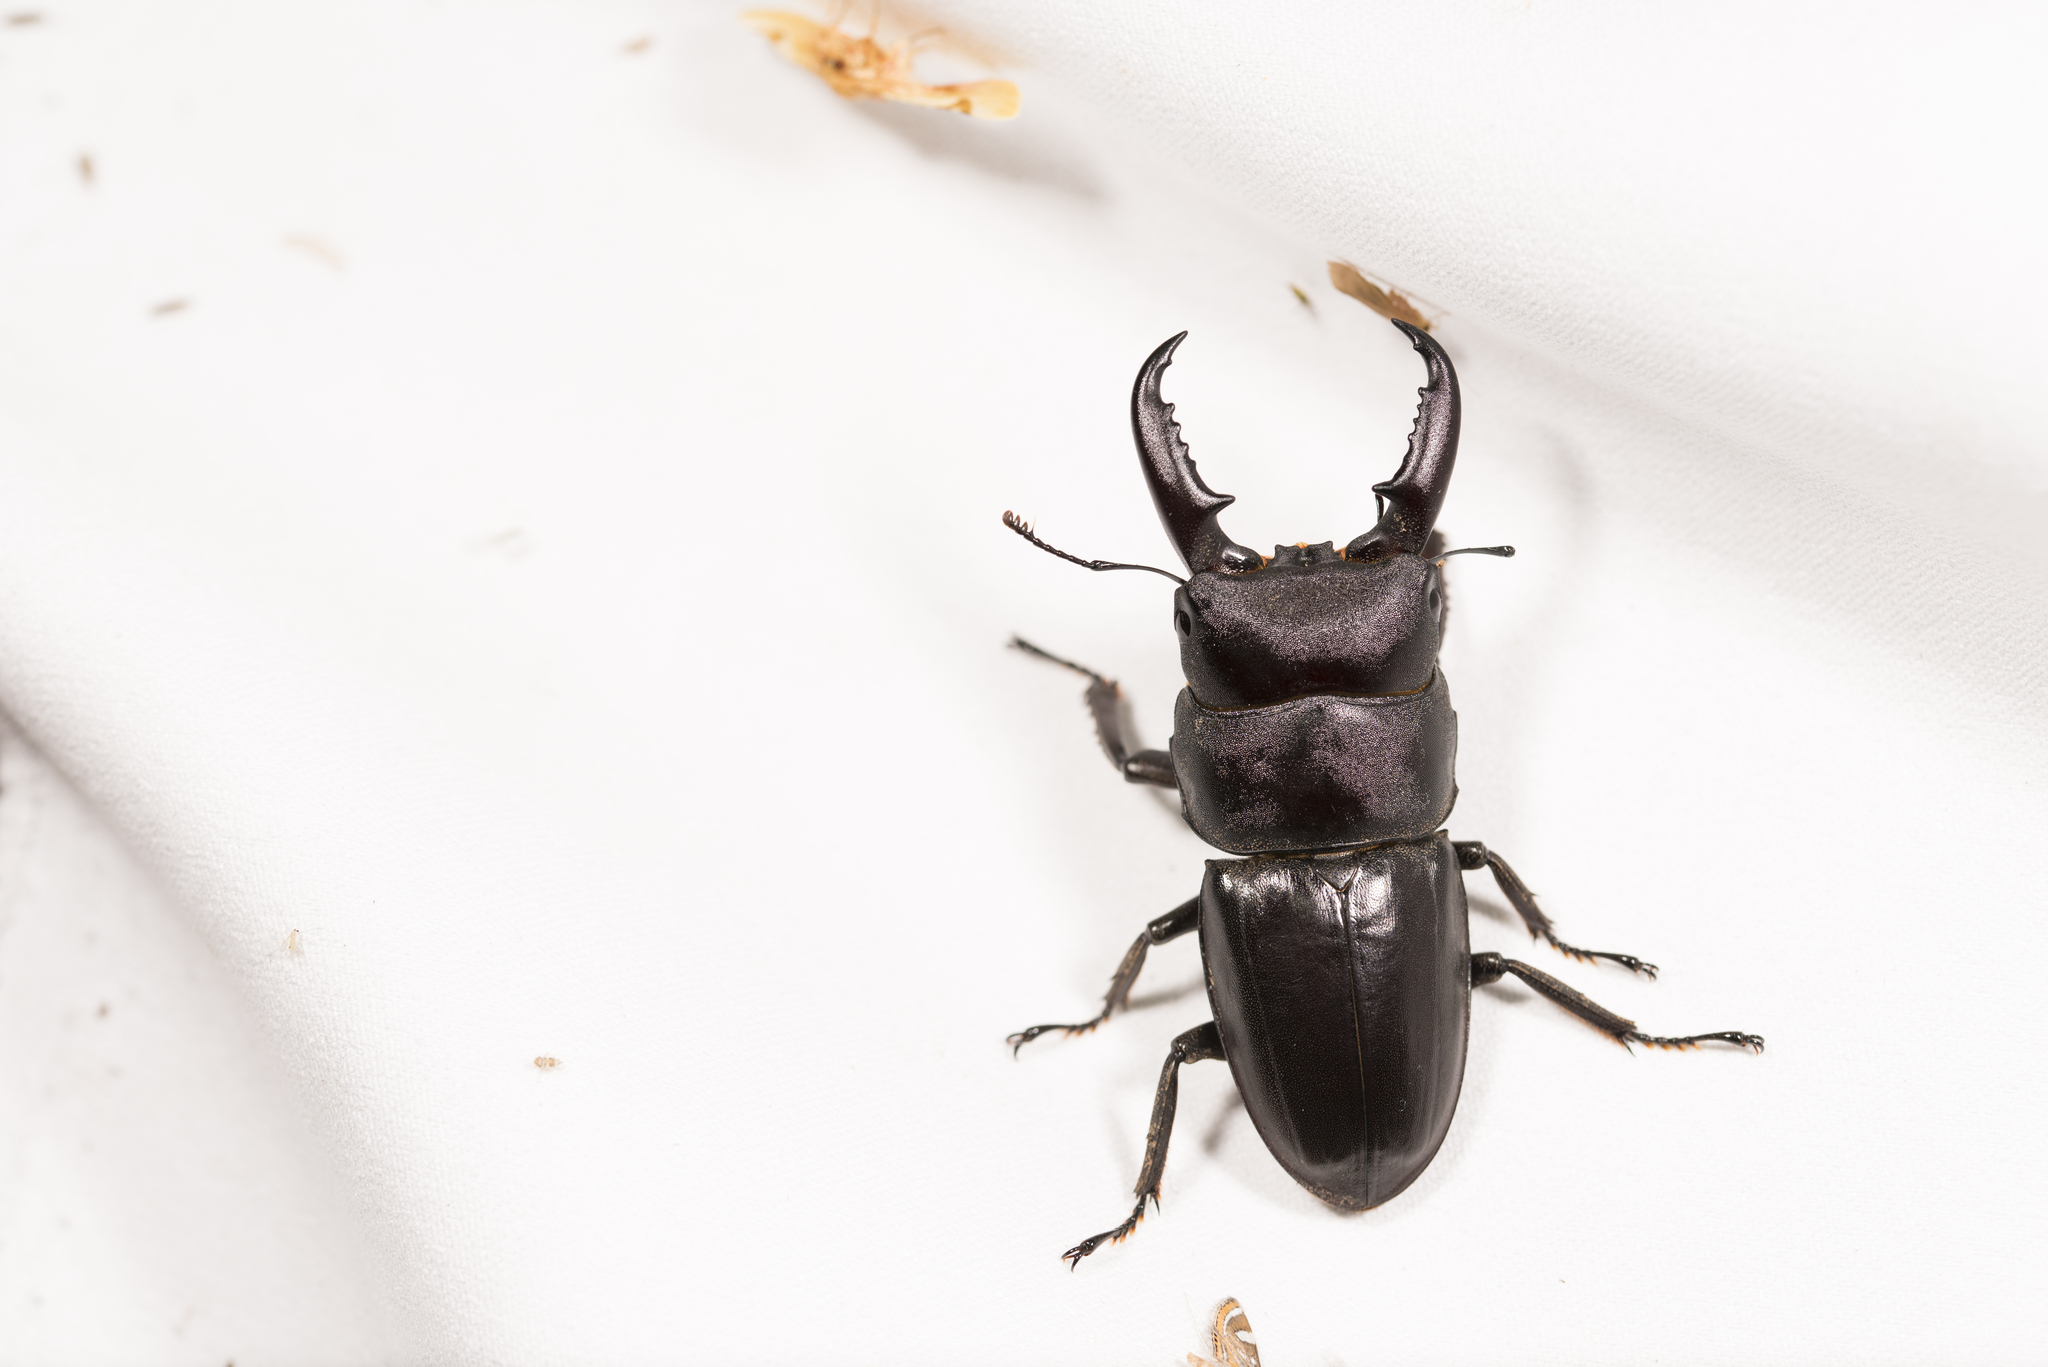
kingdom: Animalia
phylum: Arthropoda
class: Insecta
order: Coleoptera
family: Lucanidae
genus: Serrognathus
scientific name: Serrognathus titanus
